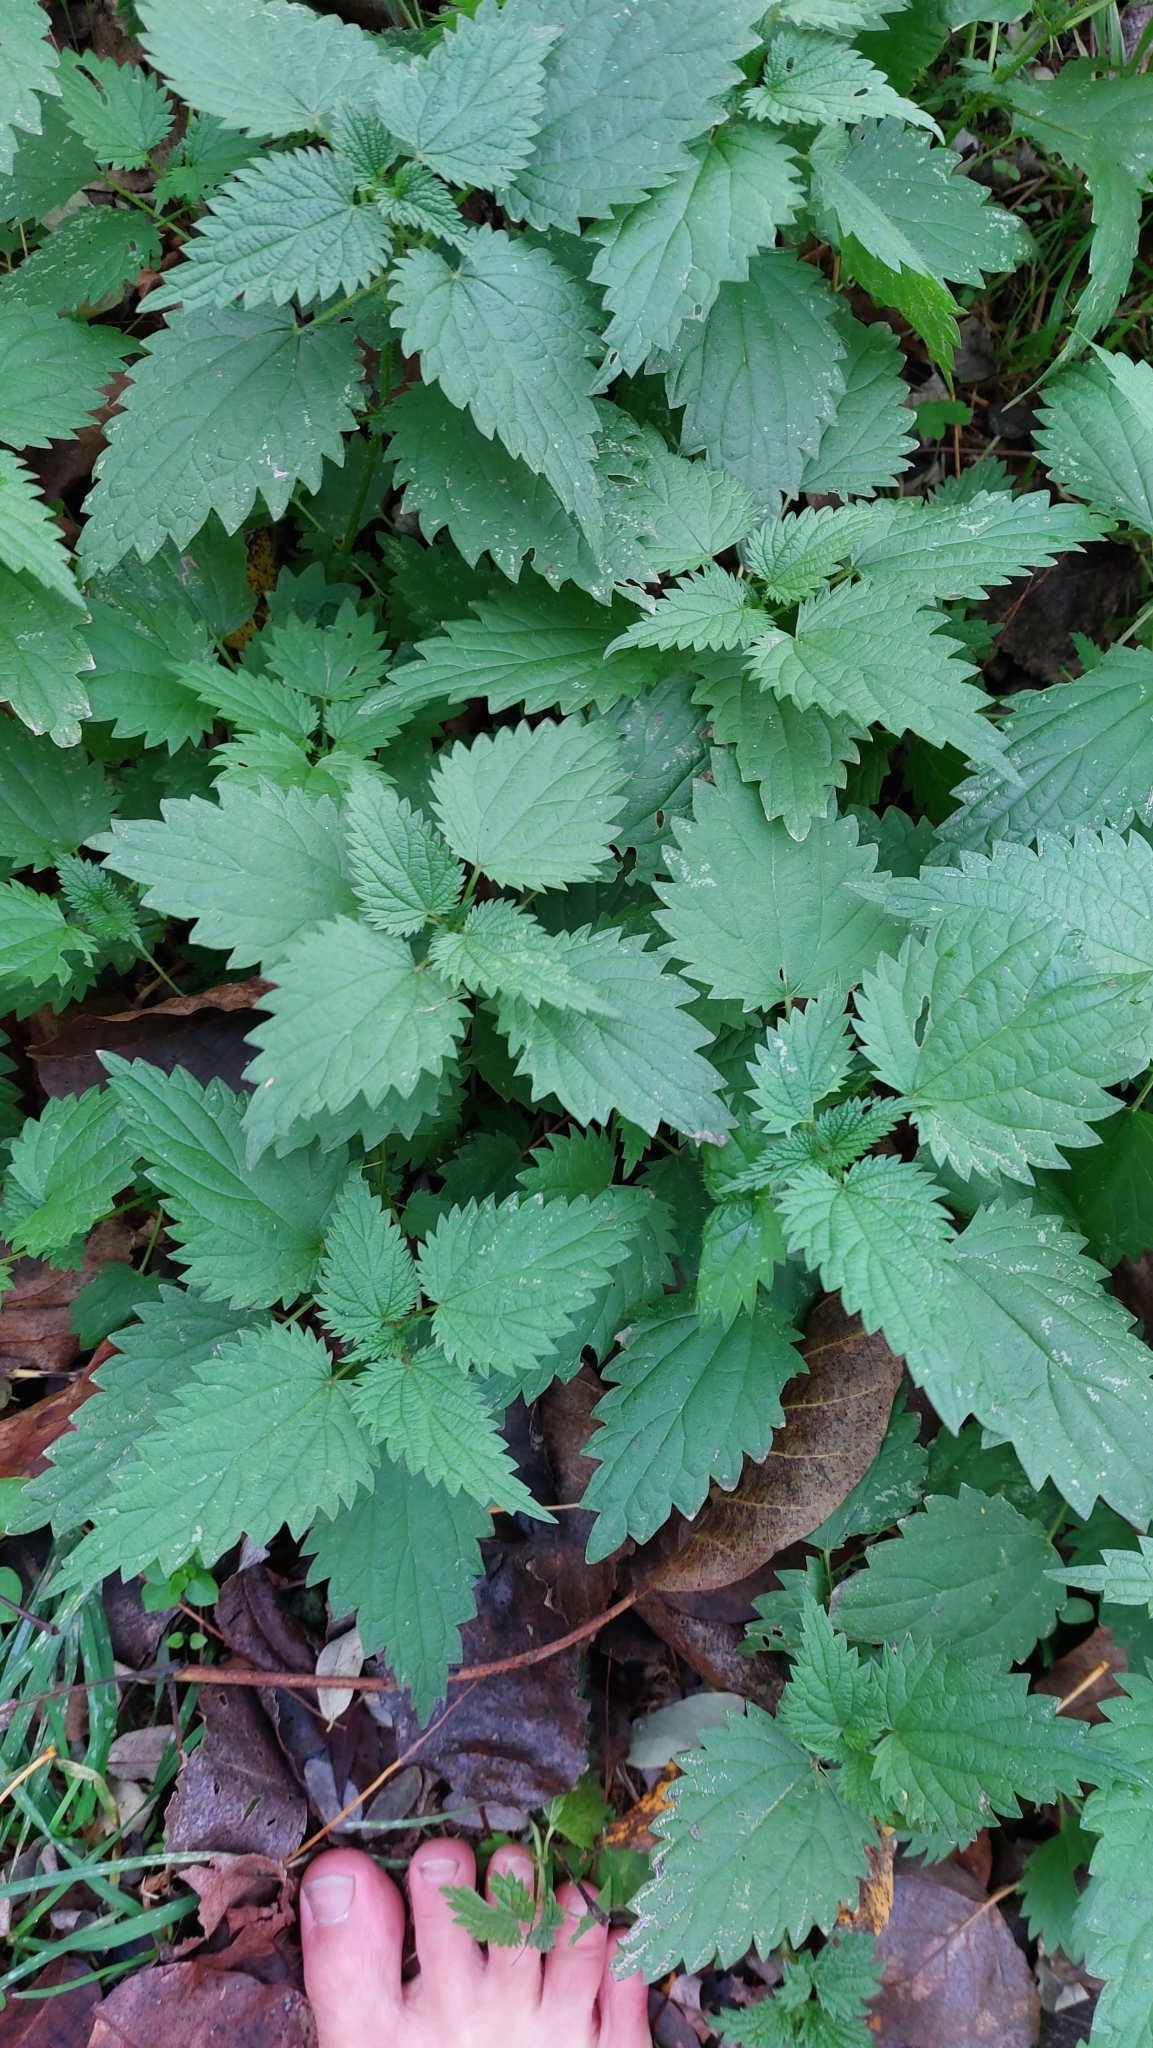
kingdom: Plantae
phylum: Tracheophyta
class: Magnoliopsida
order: Rosales
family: Urticaceae
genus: Urtica
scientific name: Urtica dioica
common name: Common nettle
